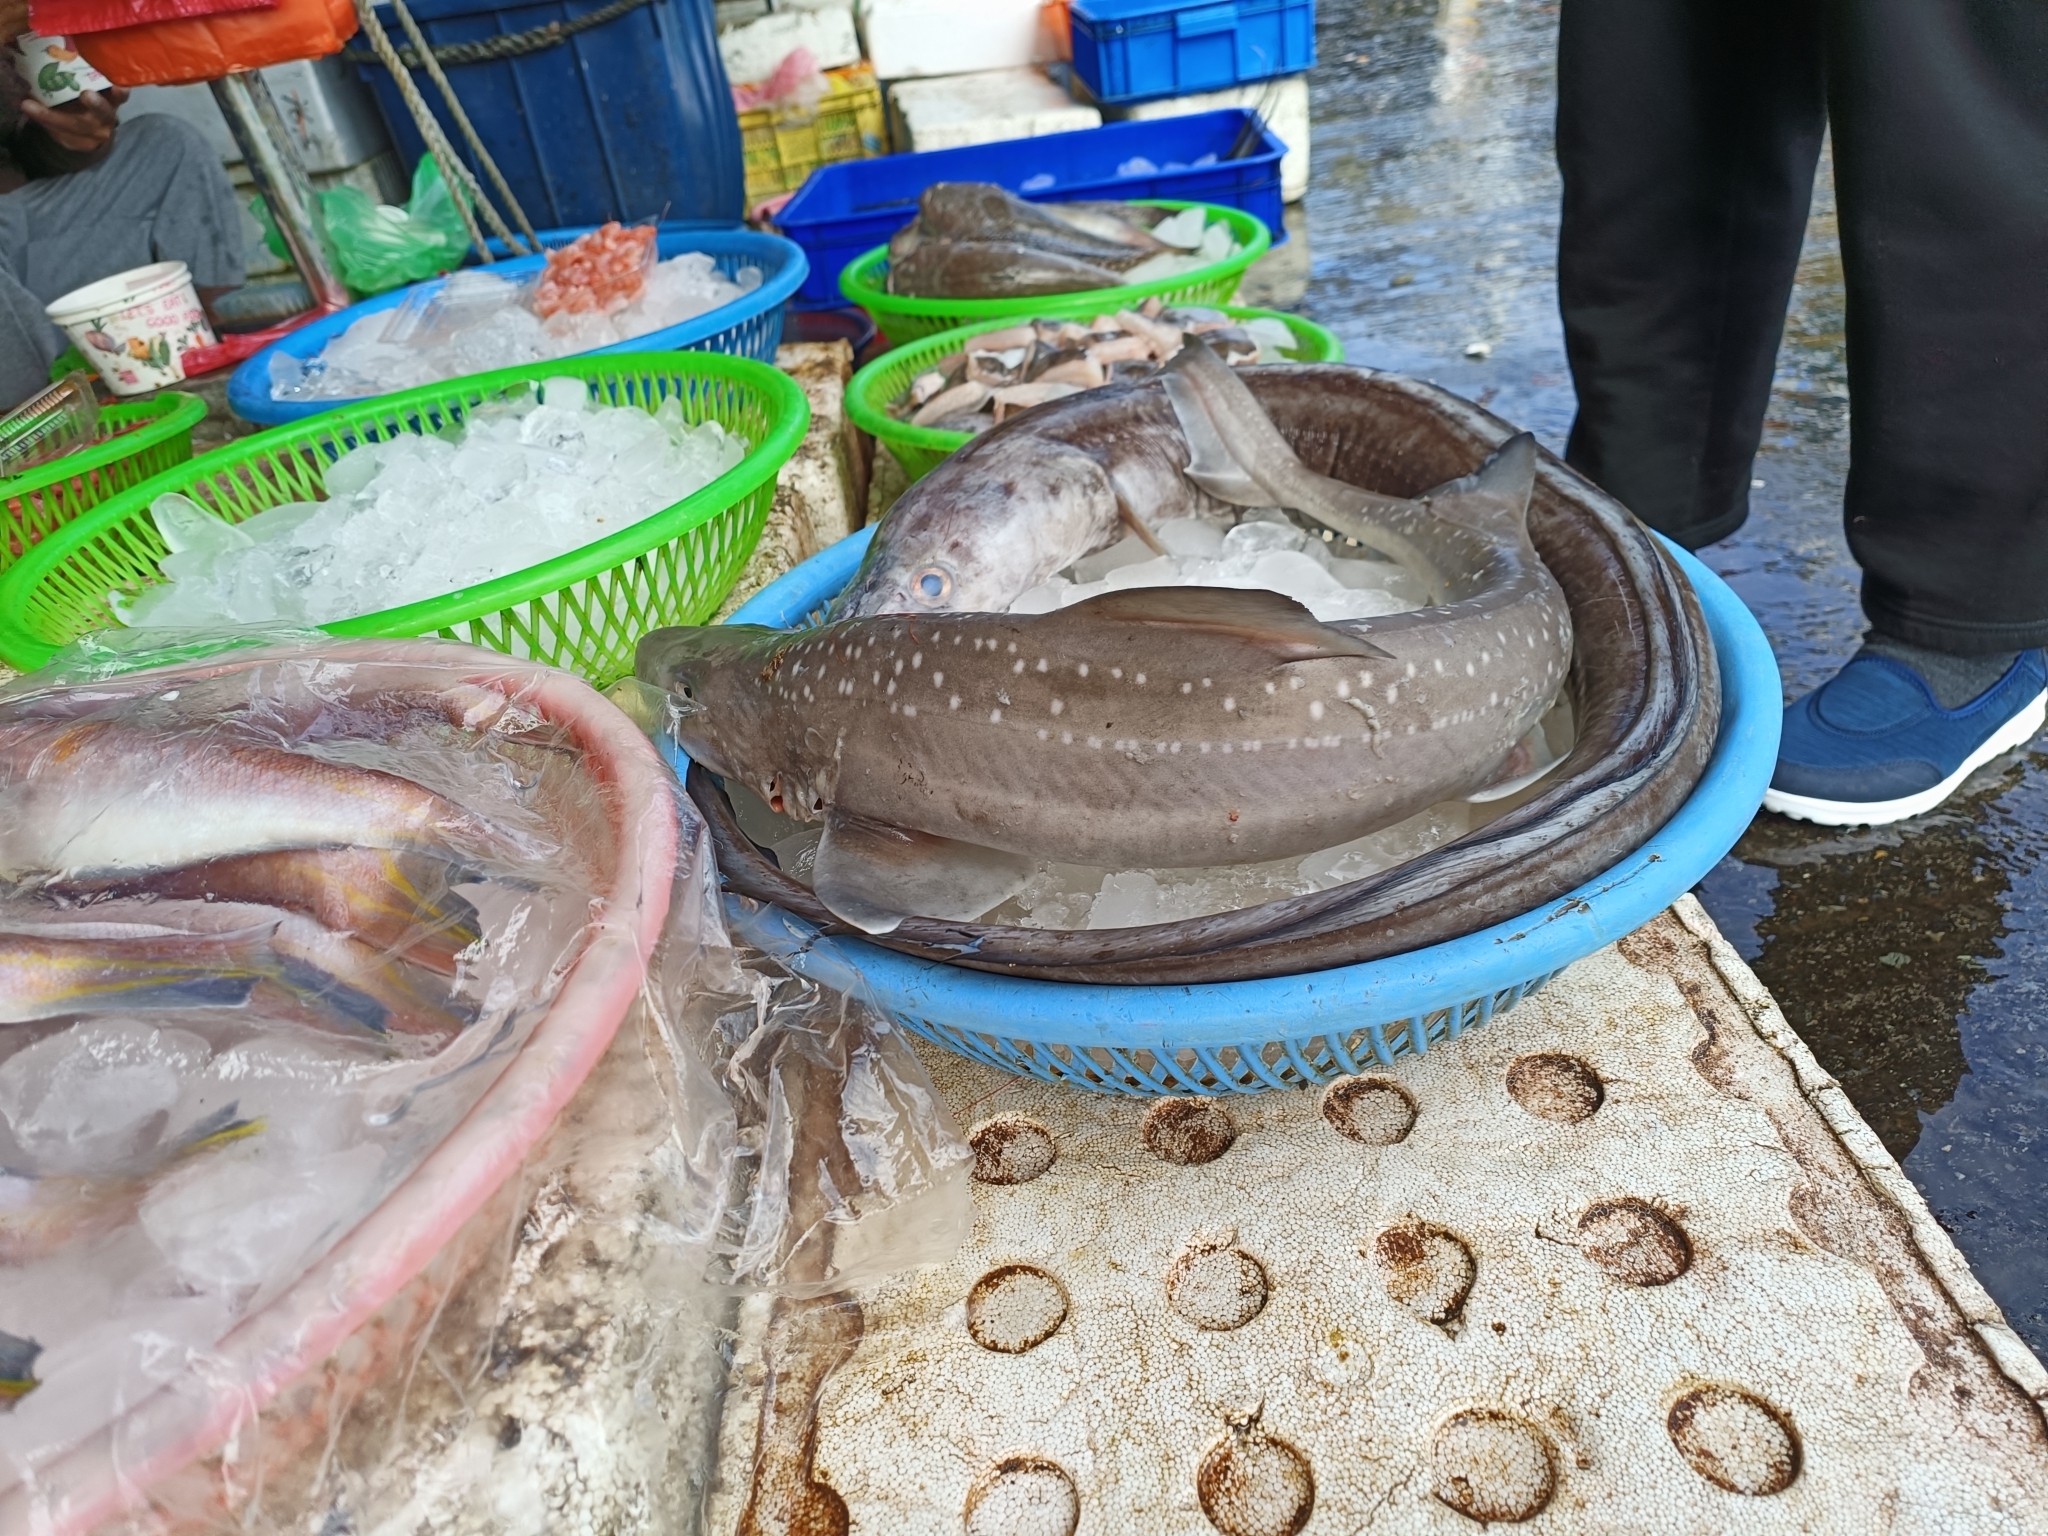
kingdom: Animalia
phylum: Chordata
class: Elasmobranchii
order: Carcharhiniformes
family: Triakidae
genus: Mustelus
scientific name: Mustelus manazo
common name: Starspotted smooth-hound
